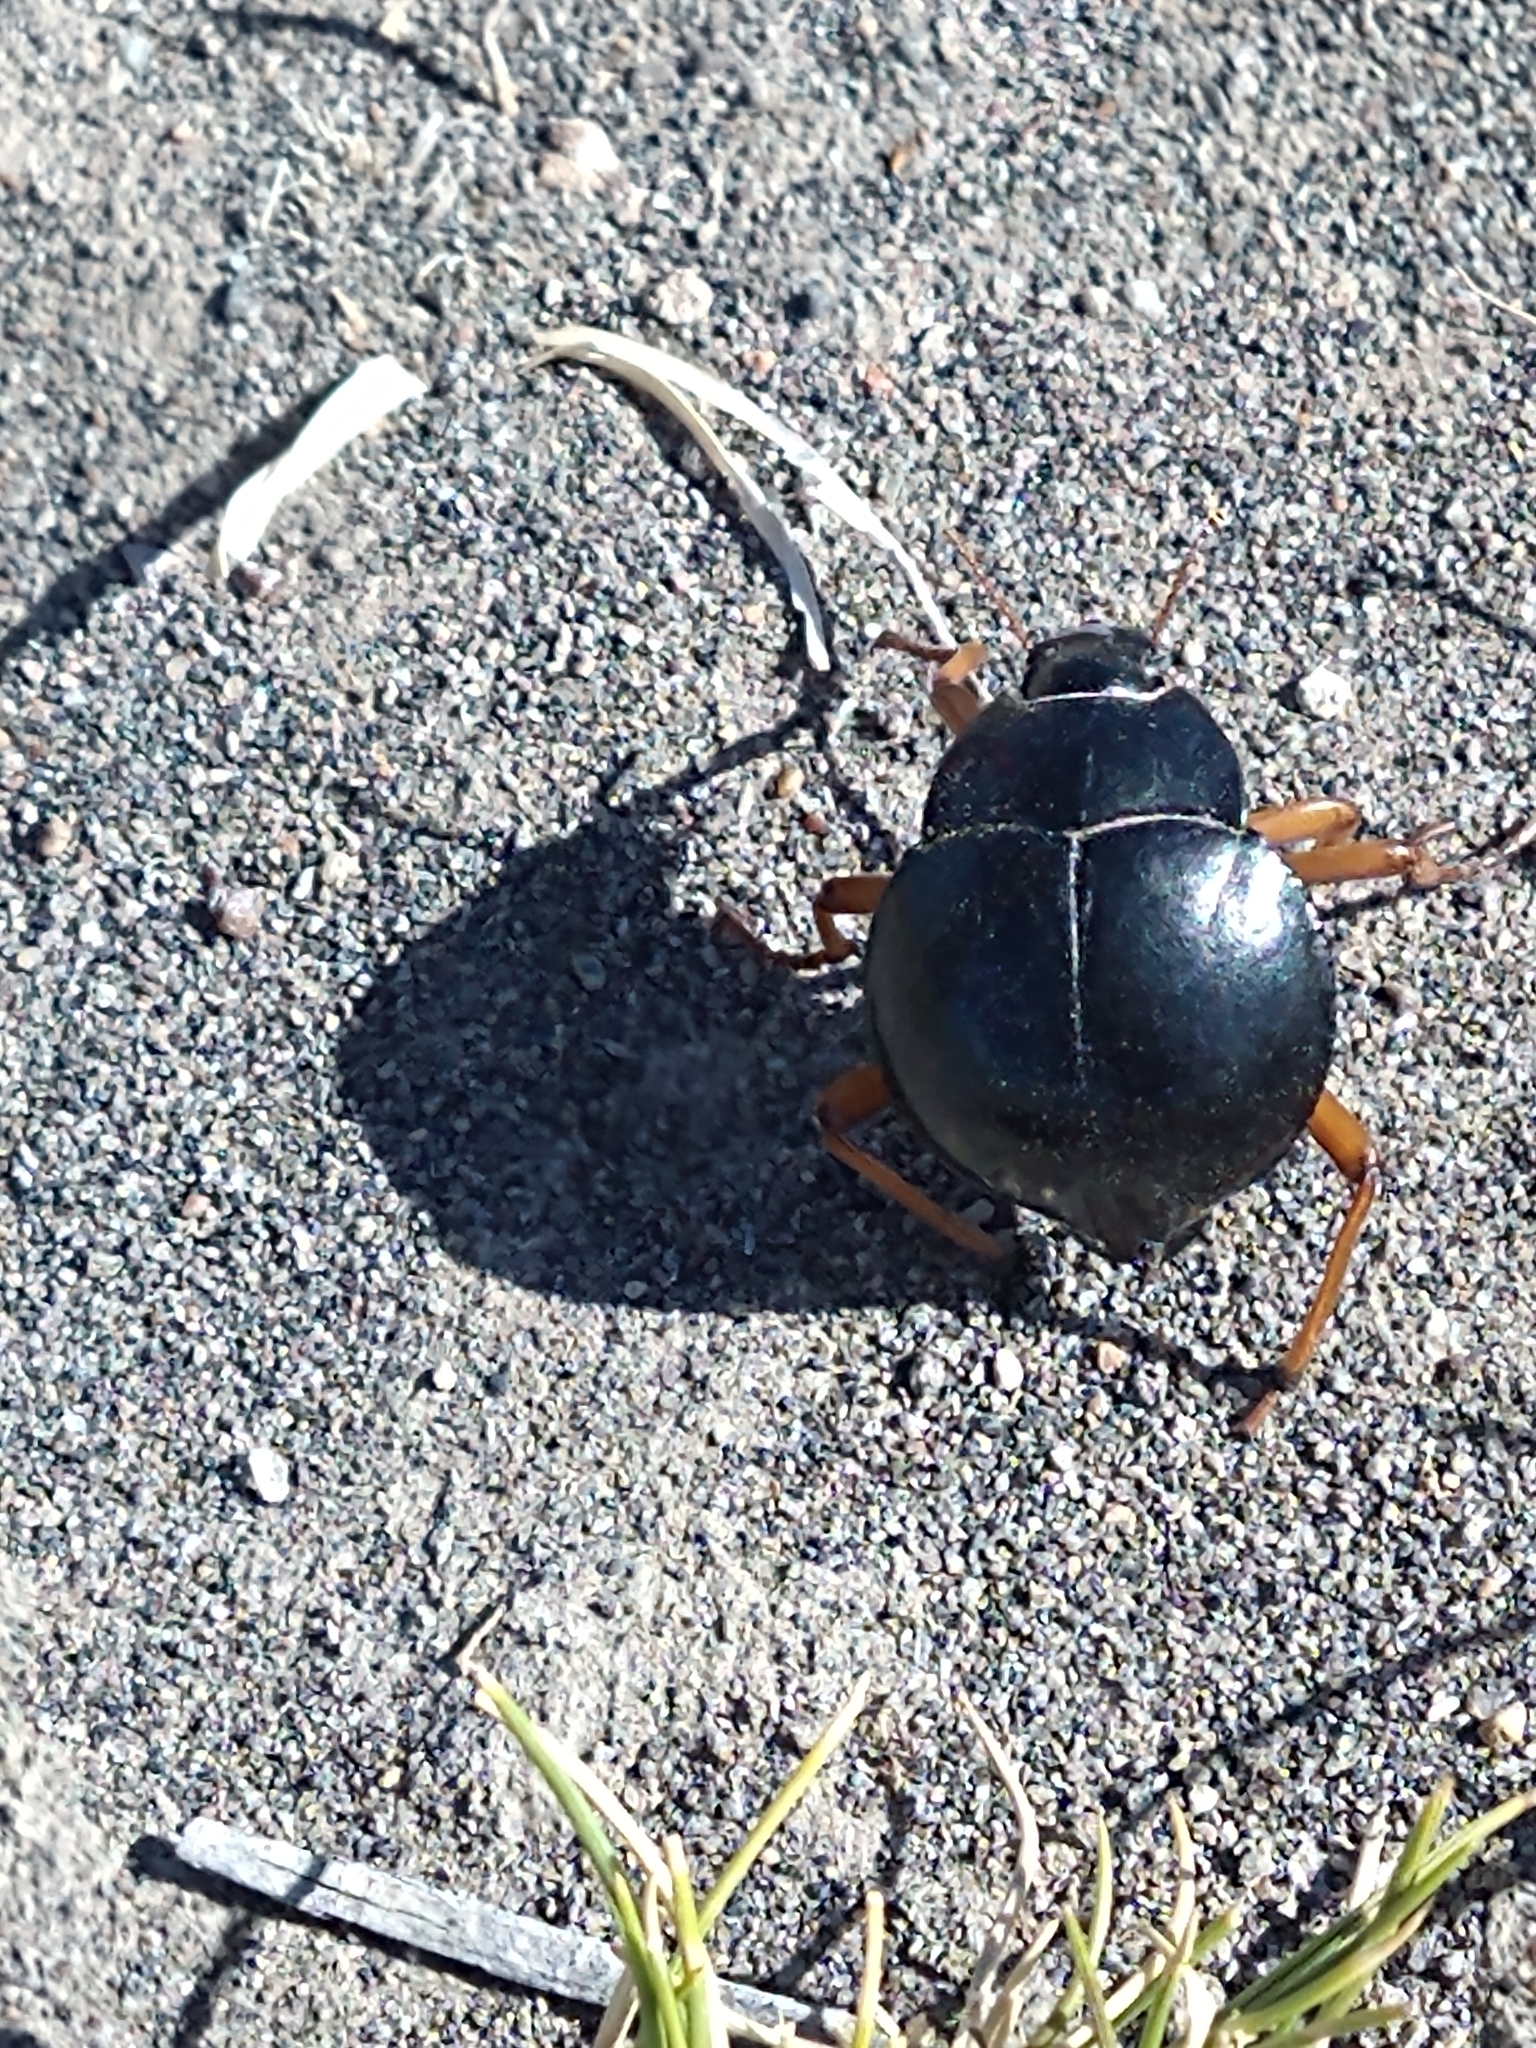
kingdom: Animalia
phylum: Arthropoda
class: Insecta
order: Coleoptera
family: Tenebrionidae
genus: Nyctelia
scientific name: Nyctelia
